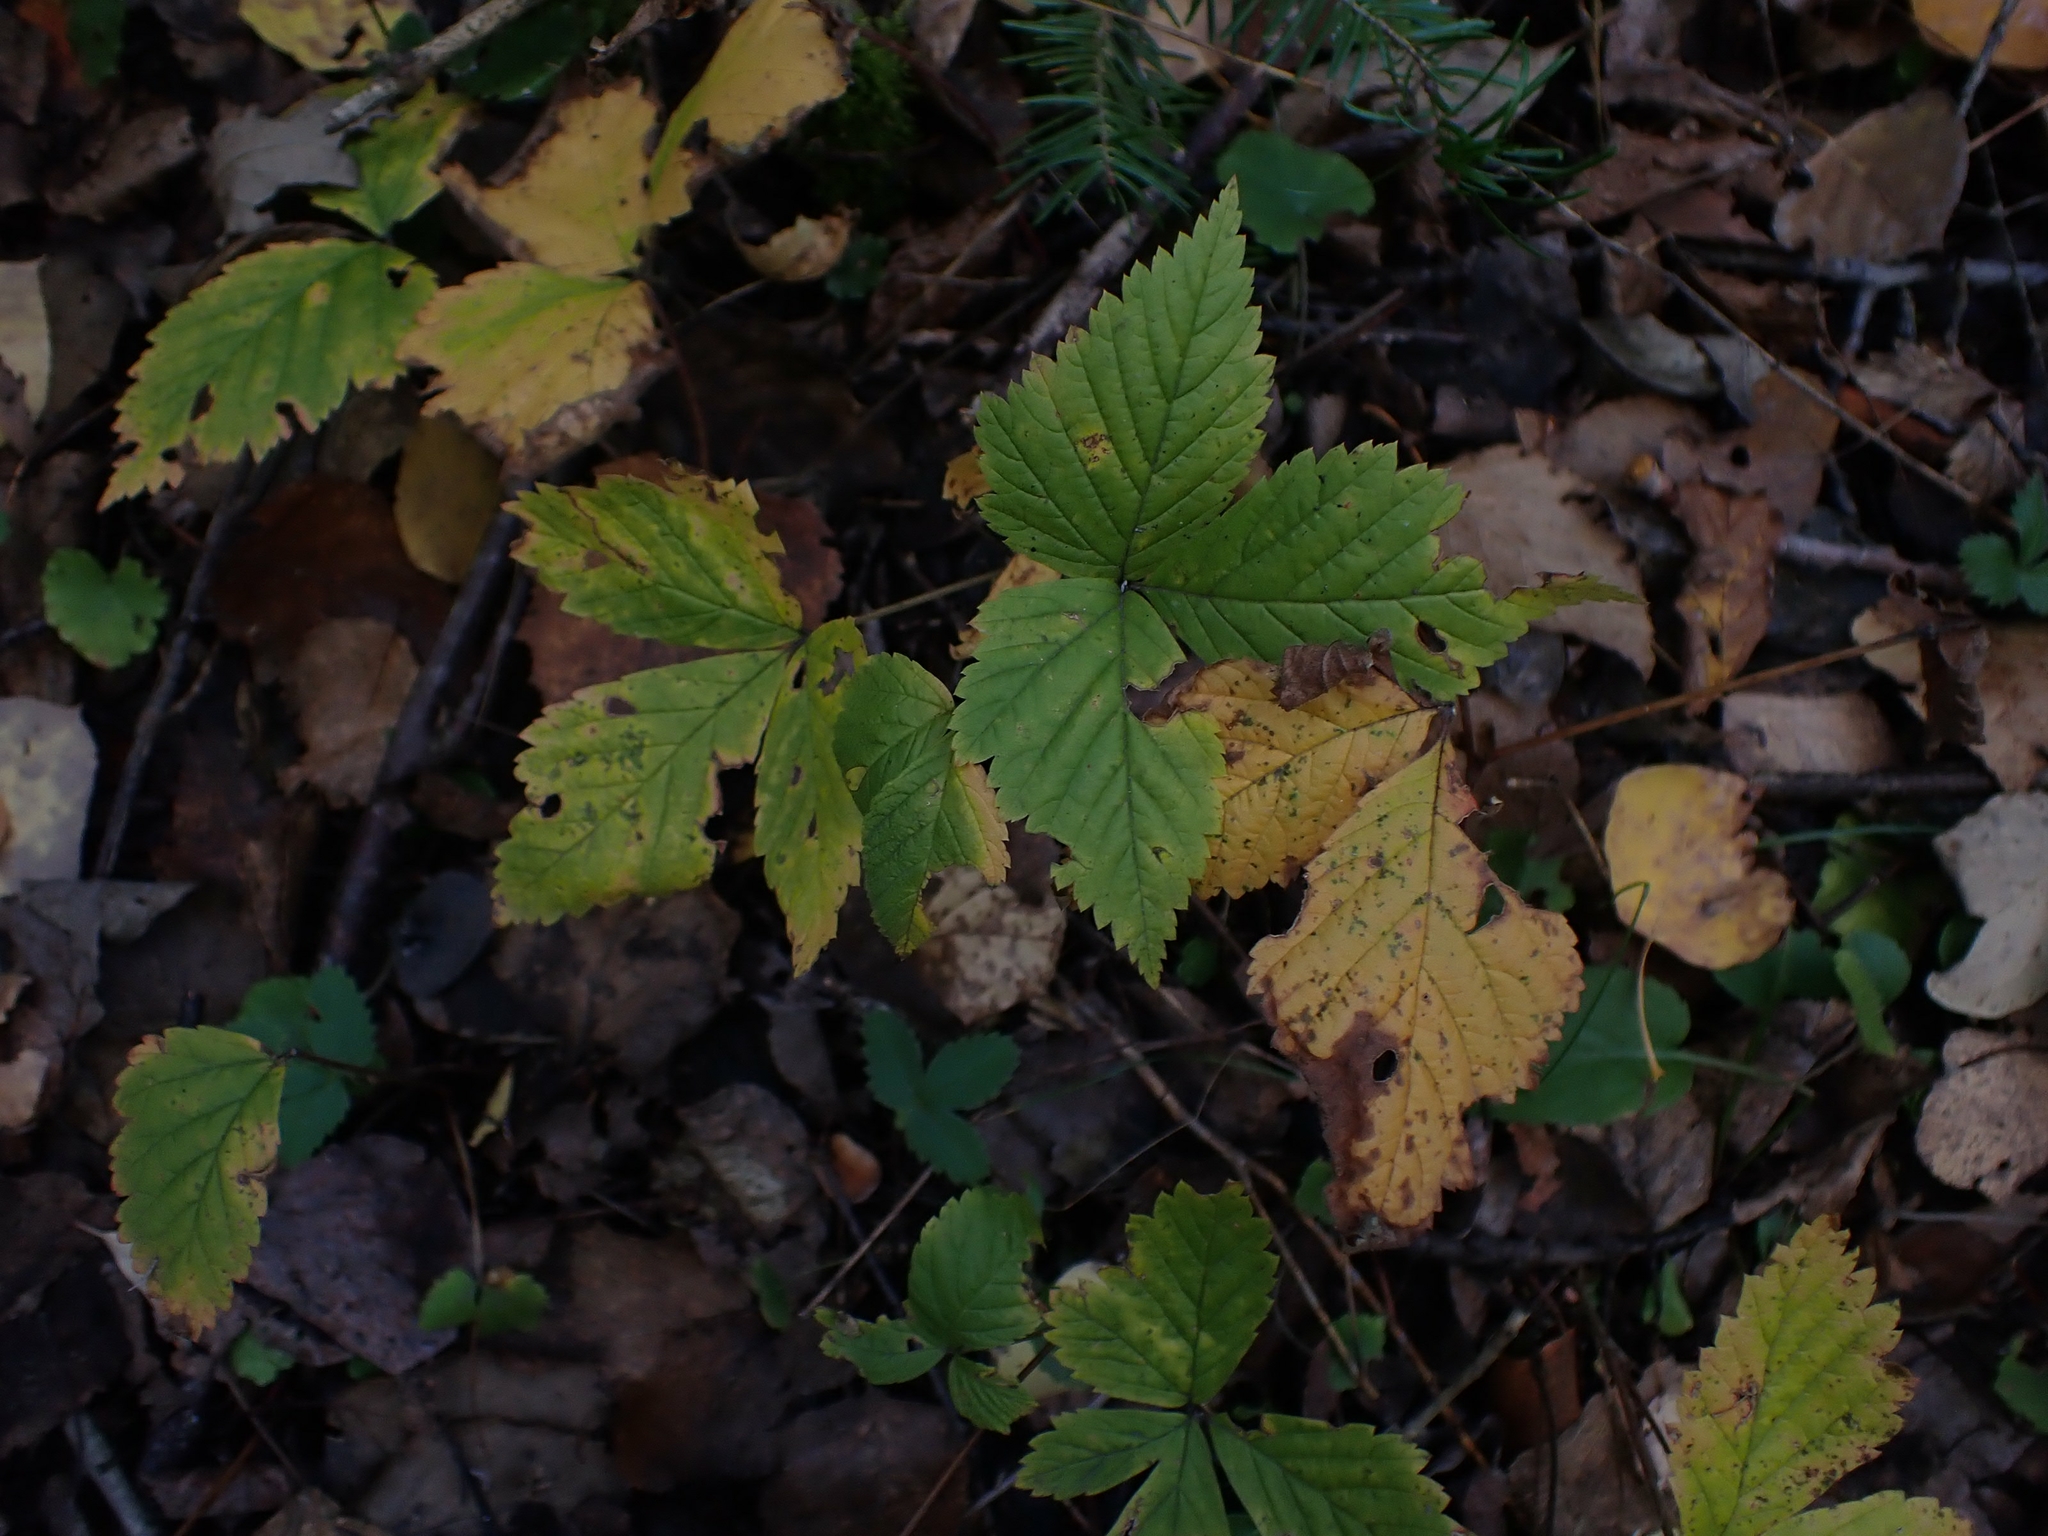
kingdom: Plantae
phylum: Tracheophyta
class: Magnoliopsida
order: Rosales
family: Rosaceae
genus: Rubus
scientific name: Rubus pubescens
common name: Dwarf raspberry
